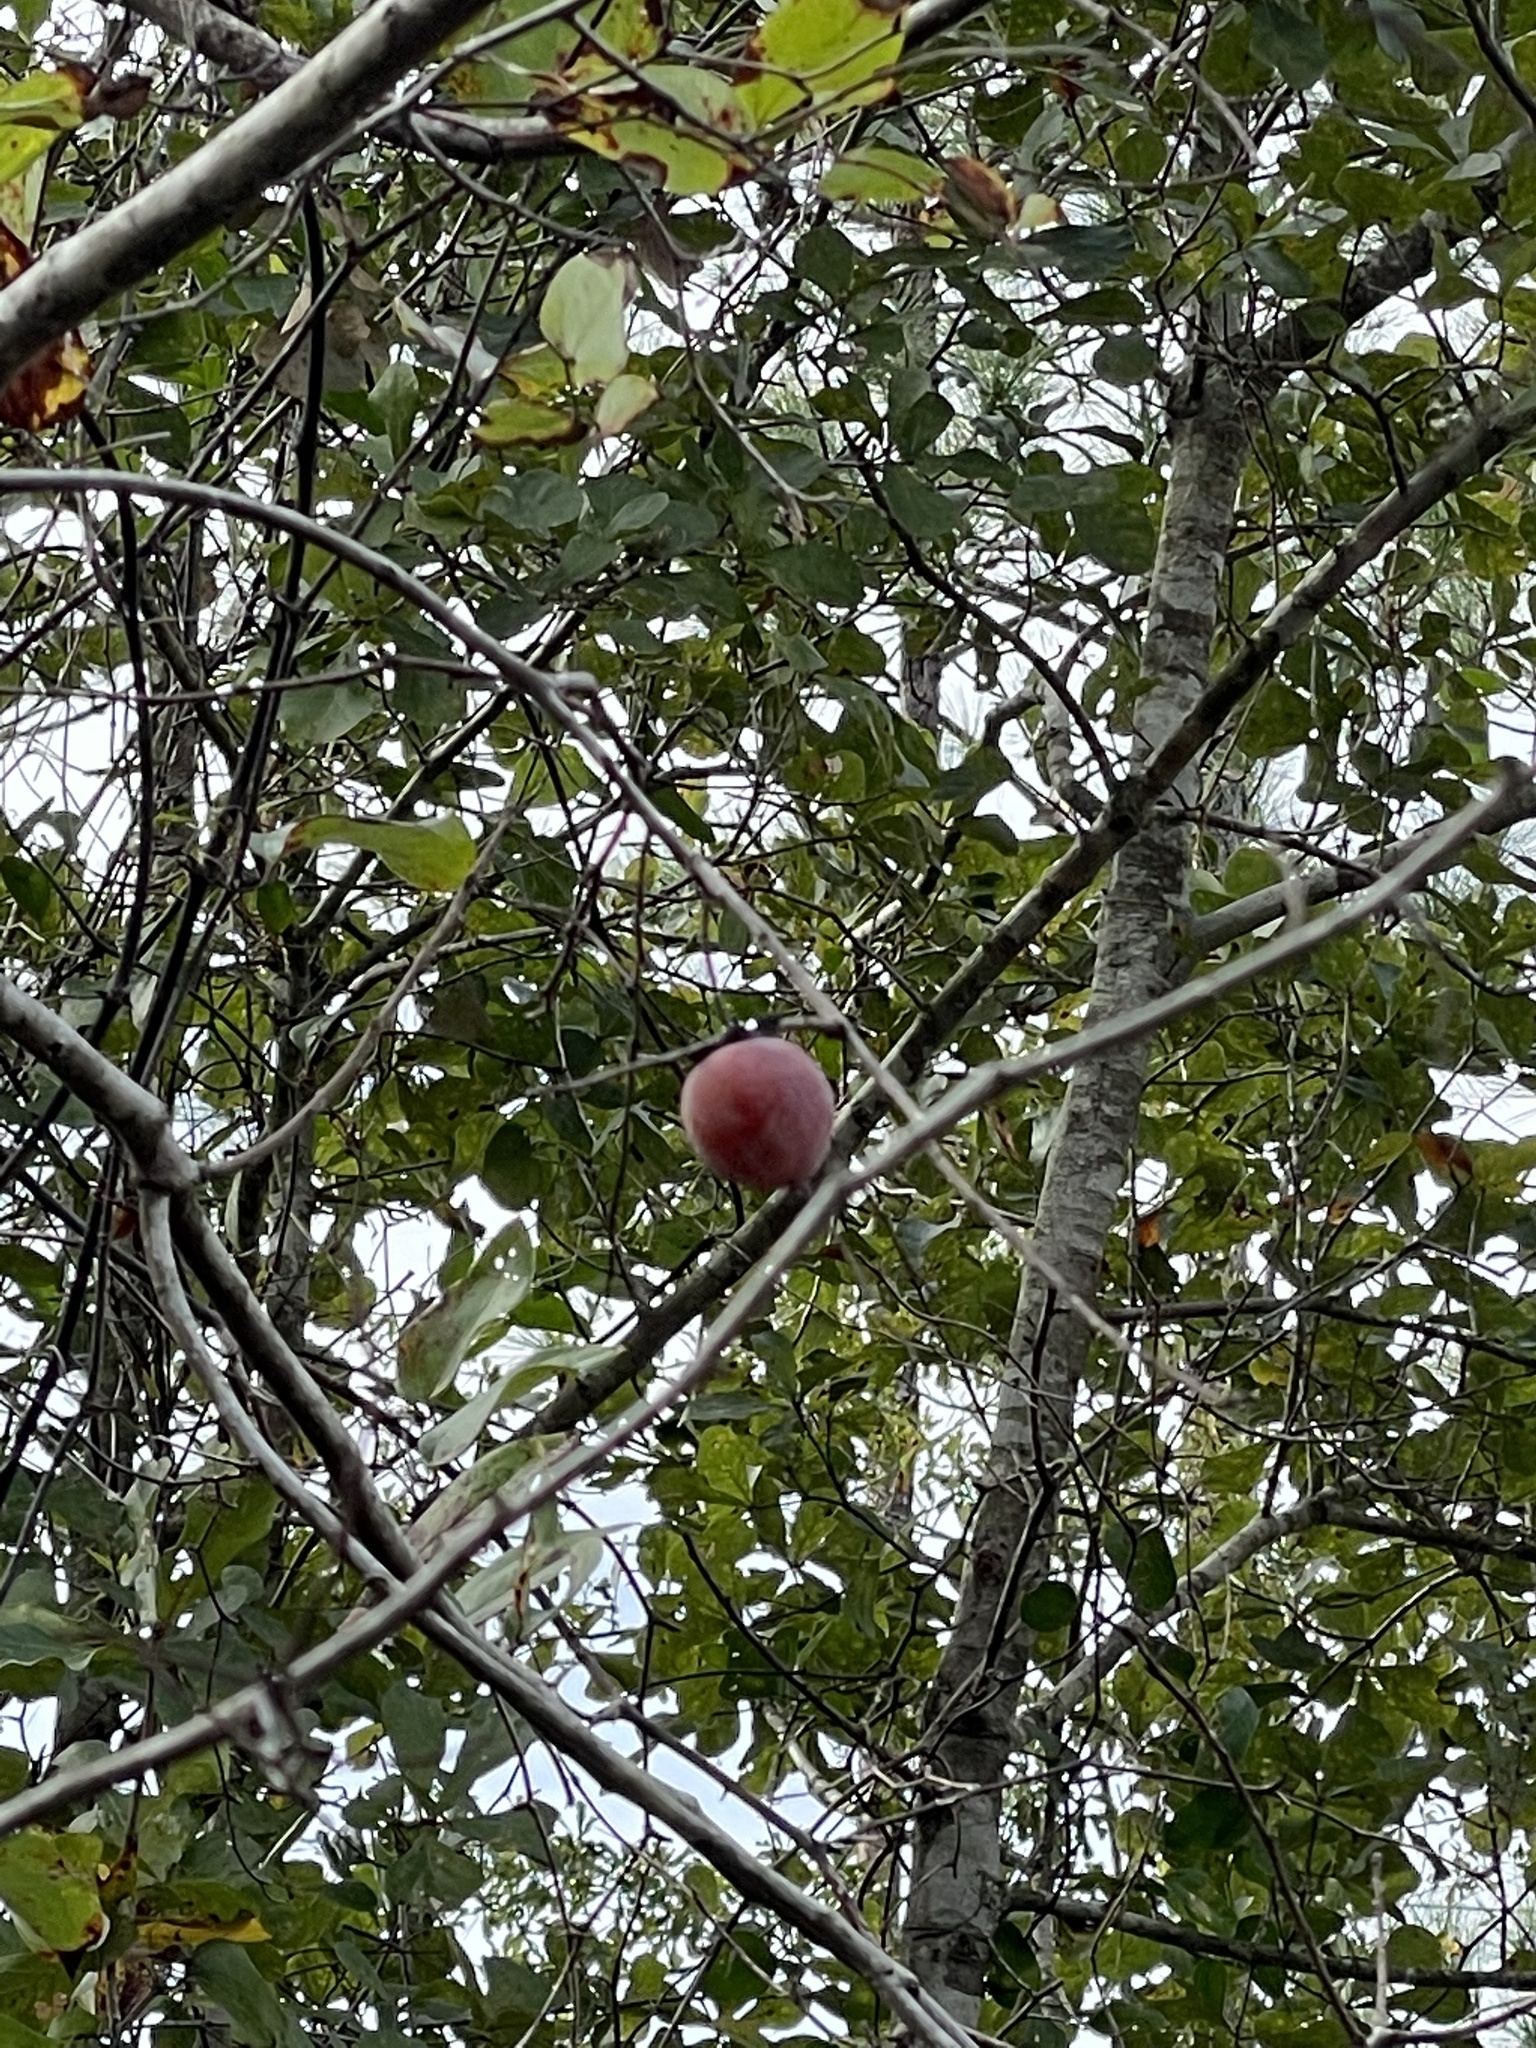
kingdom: Plantae
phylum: Tracheophyta
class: Magnoliopsida
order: Ericales
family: Ebenaceae
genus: Diospyros
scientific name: Diospyros virginiana
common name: Persimmon
